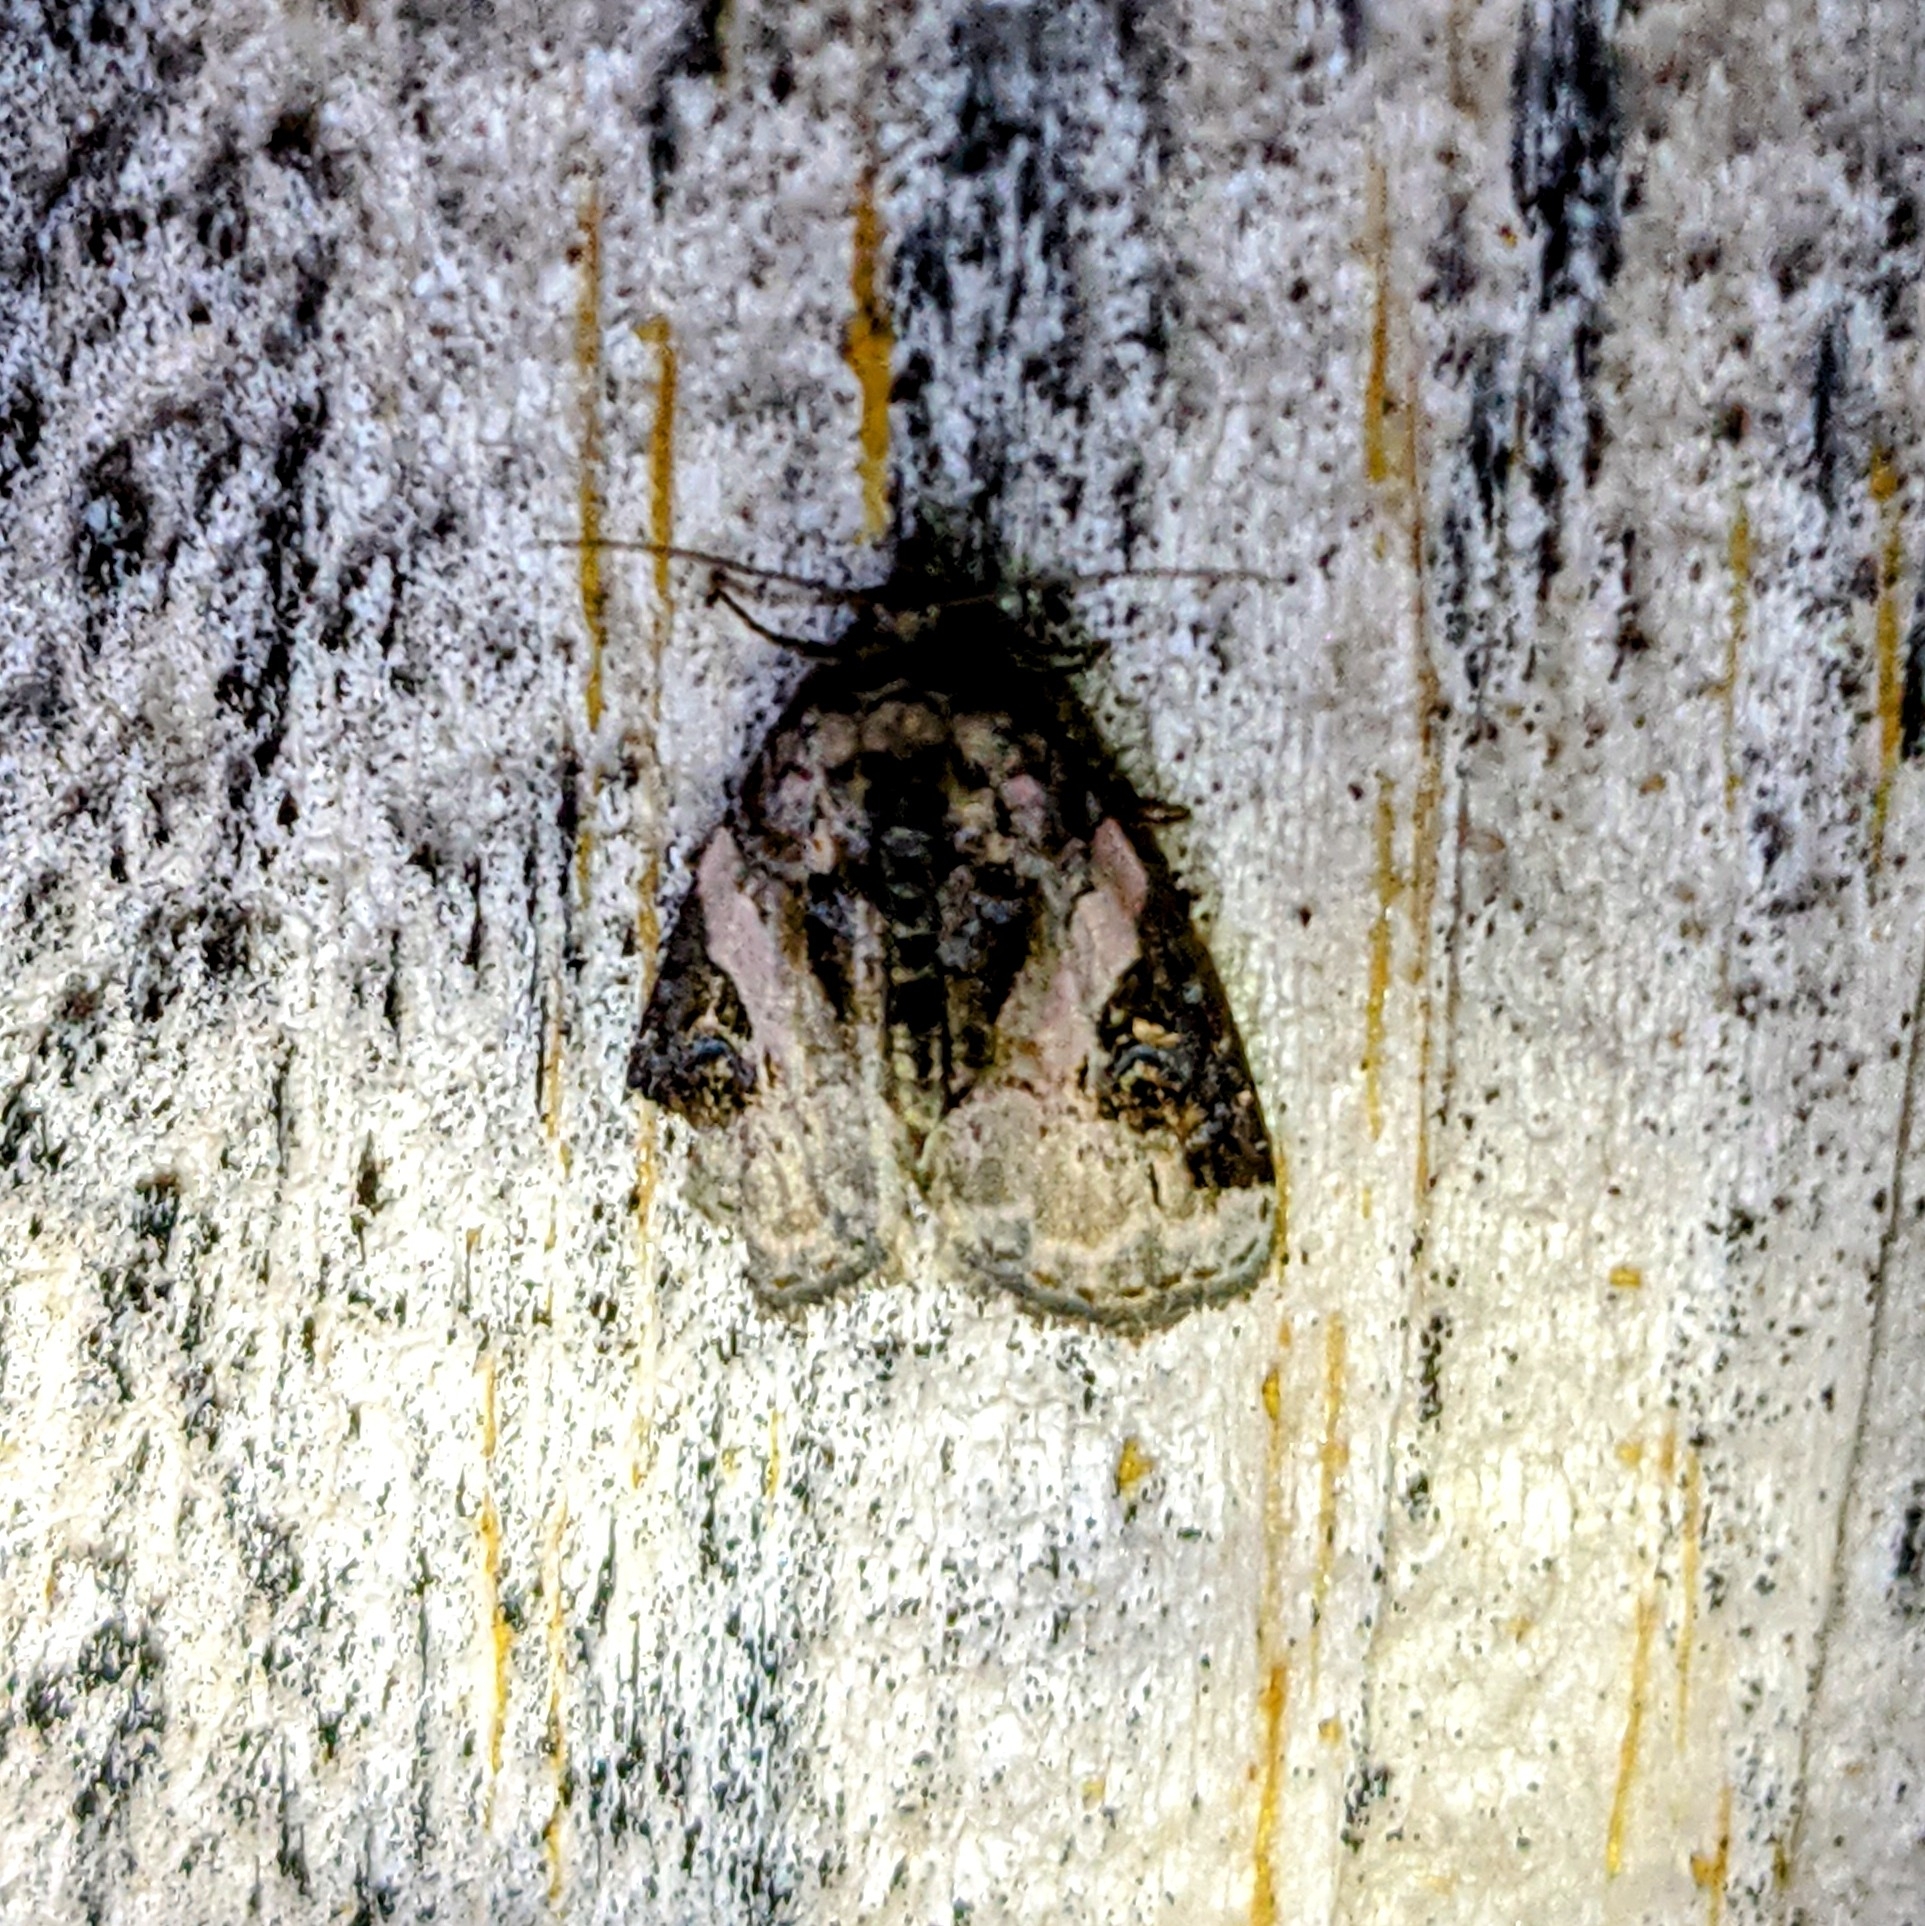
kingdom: Animalia
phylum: Arthropoda
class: Insecta
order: Lepidoptera
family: Noctuidae
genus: Pseudeustrotia
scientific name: Pseudeustrotia carneola
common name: Pink-barred lithacodia moth
